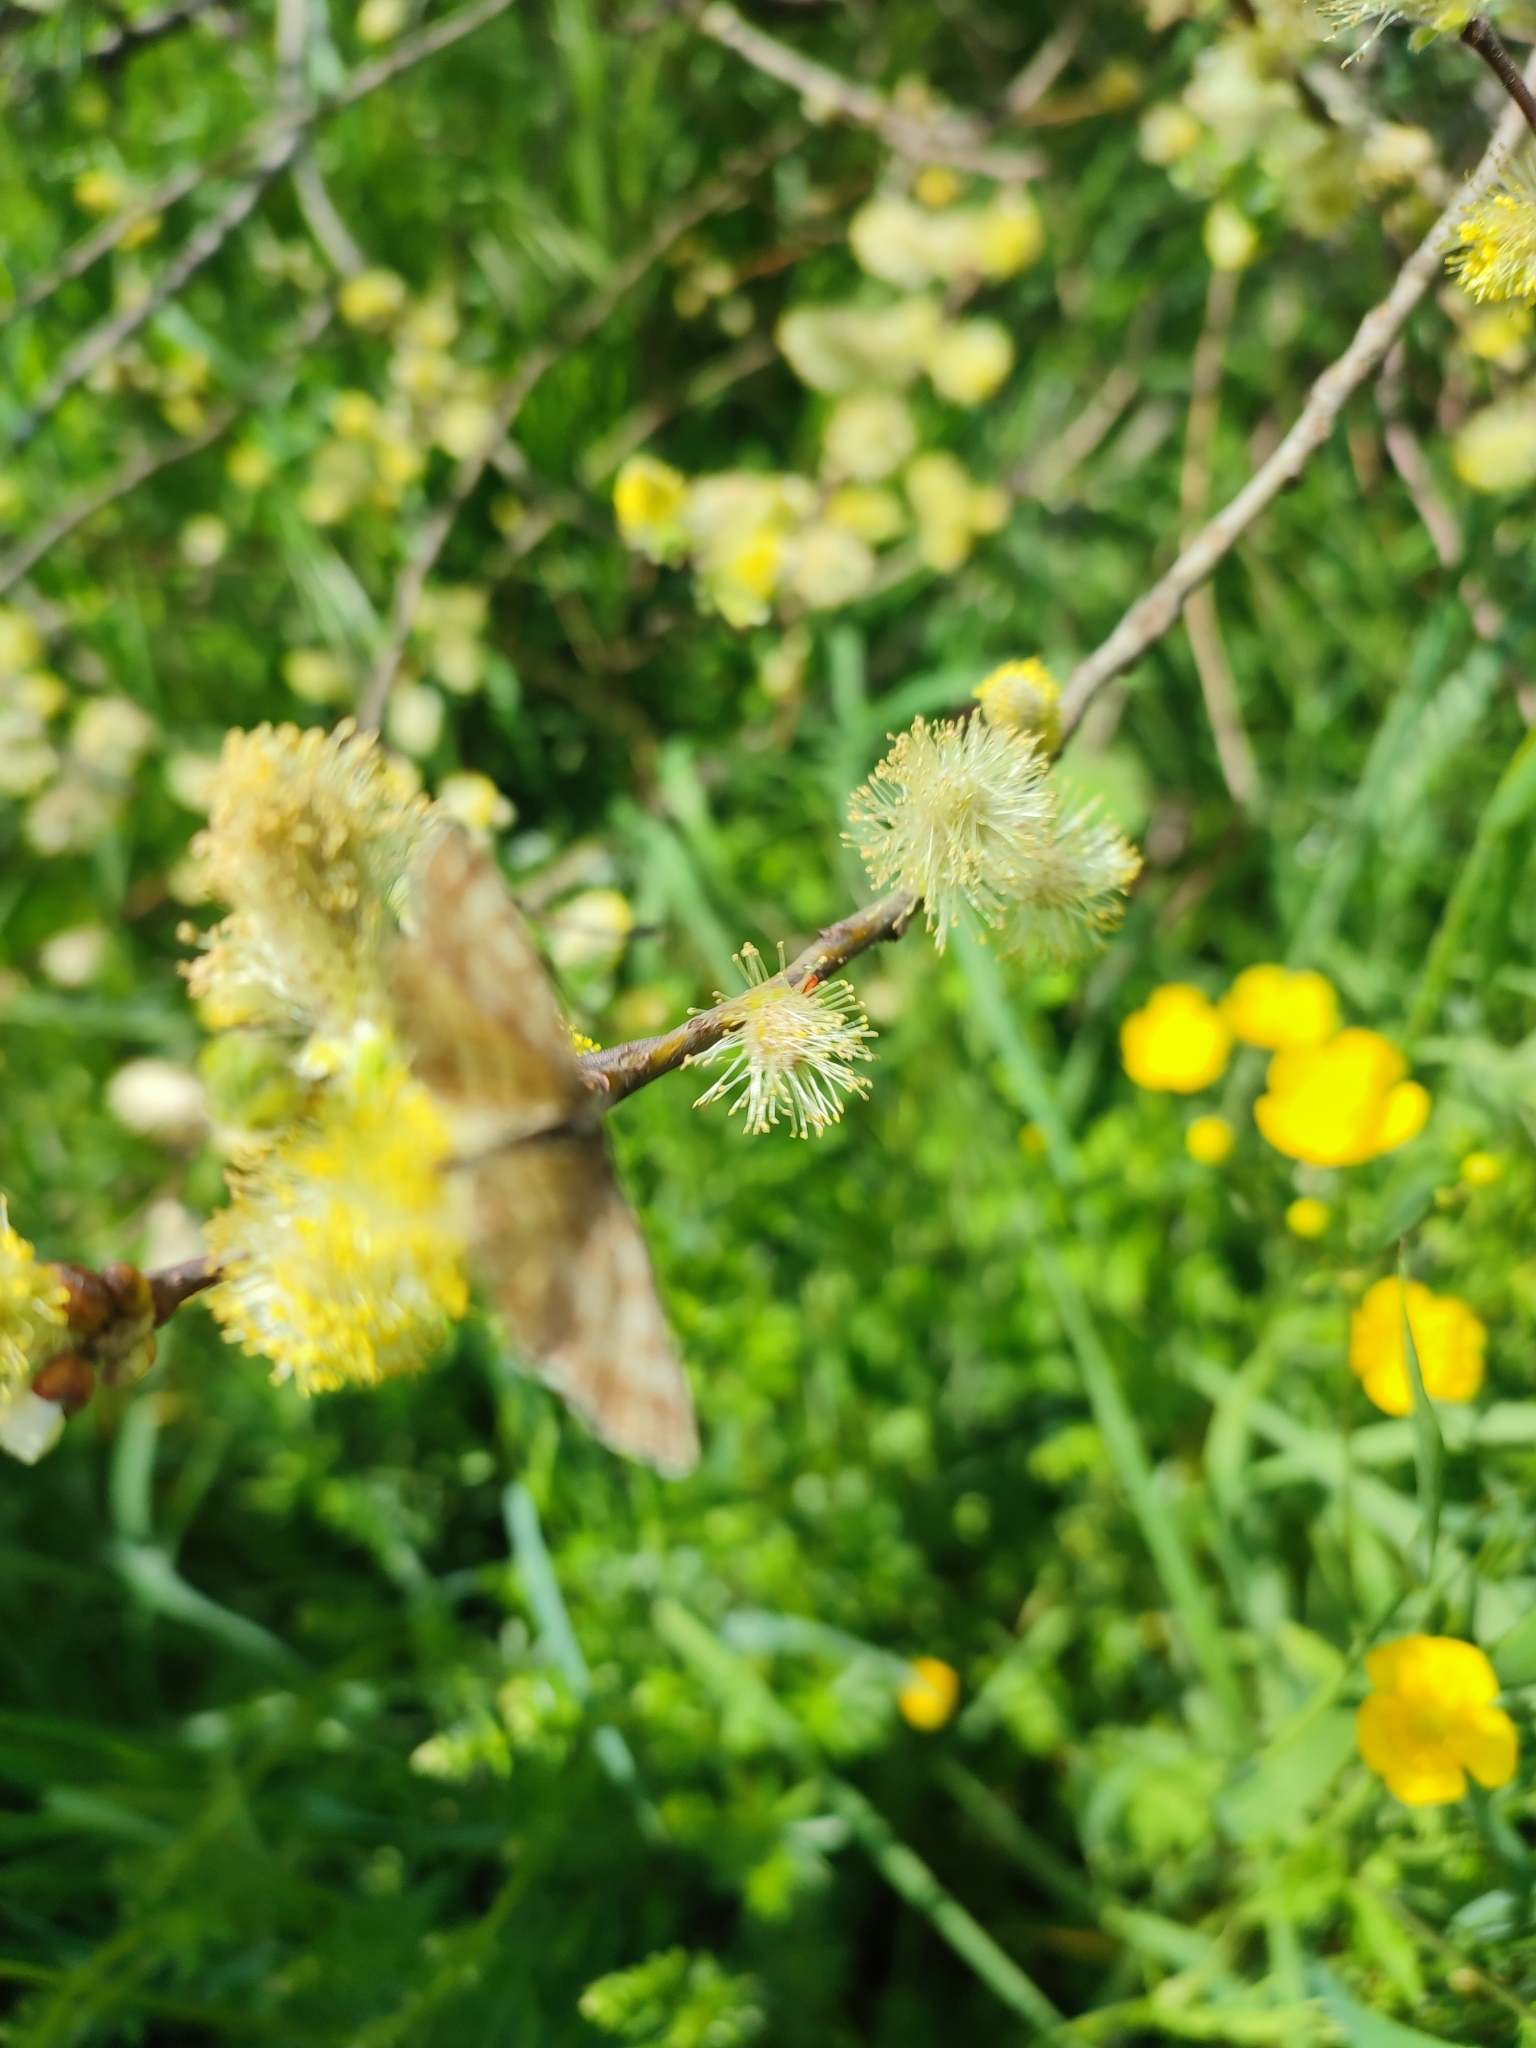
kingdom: Animalia
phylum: Arthropoda
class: Insecta
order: Lepidoptera
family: Geometridae
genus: Ematurga
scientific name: Ematurga atomaria
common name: Common heath
